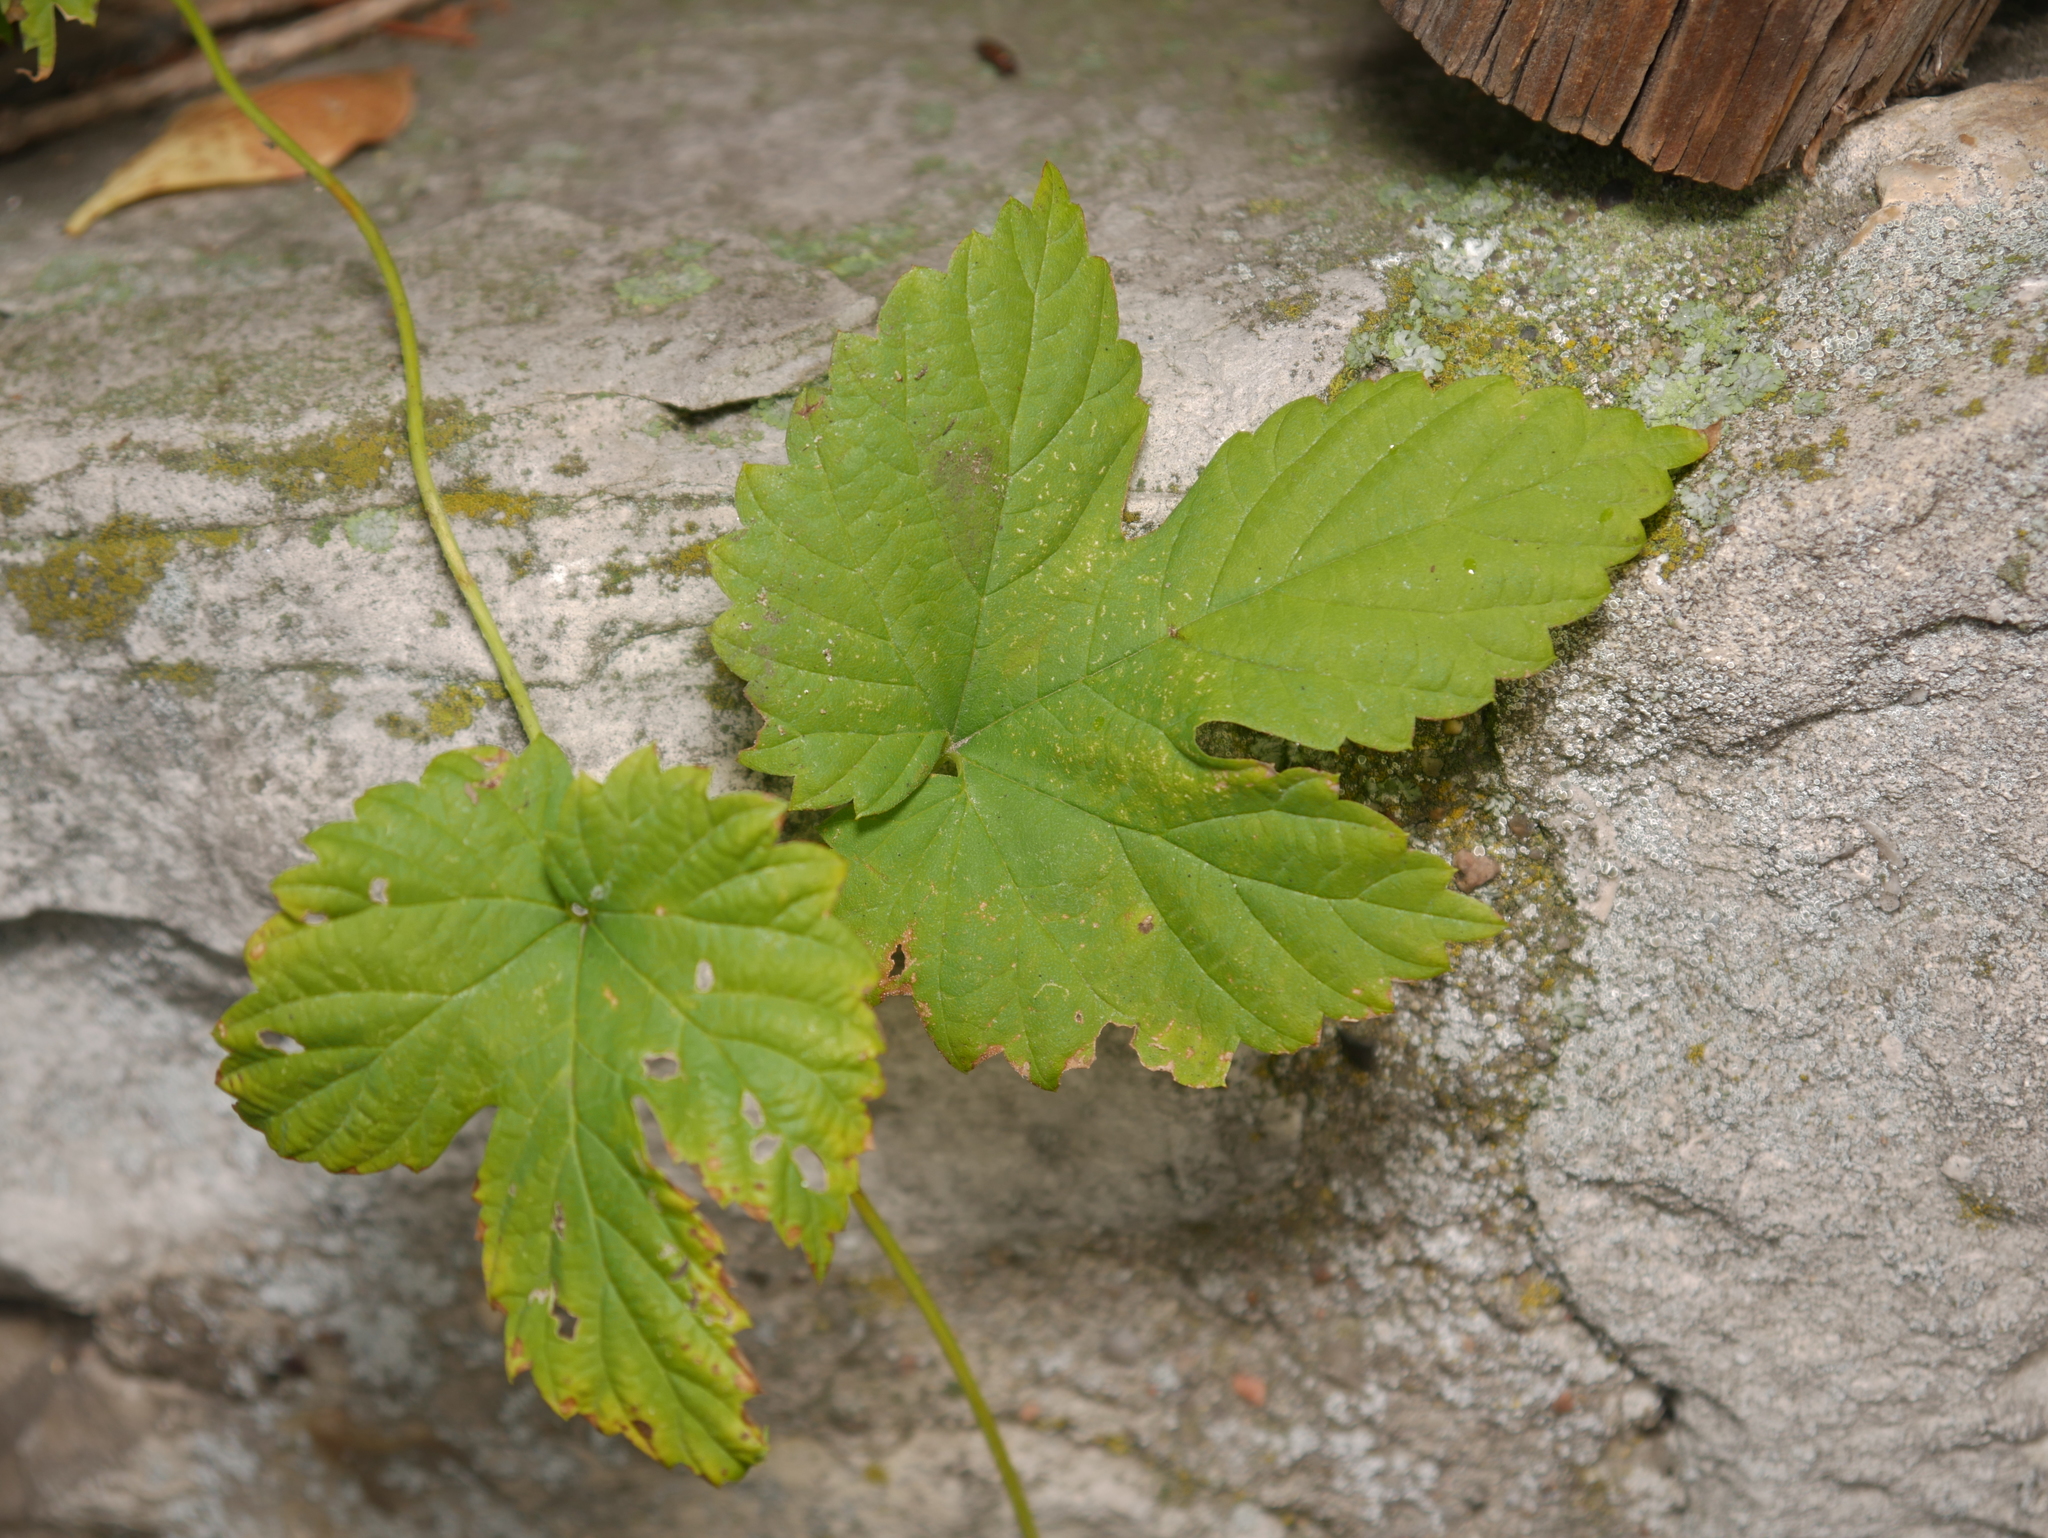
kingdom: Plantae
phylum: Tracheophyta
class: Magnoliopsida
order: Rosales
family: Cannabaceae
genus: Humulus
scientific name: Humulus lupulus
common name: Hop
